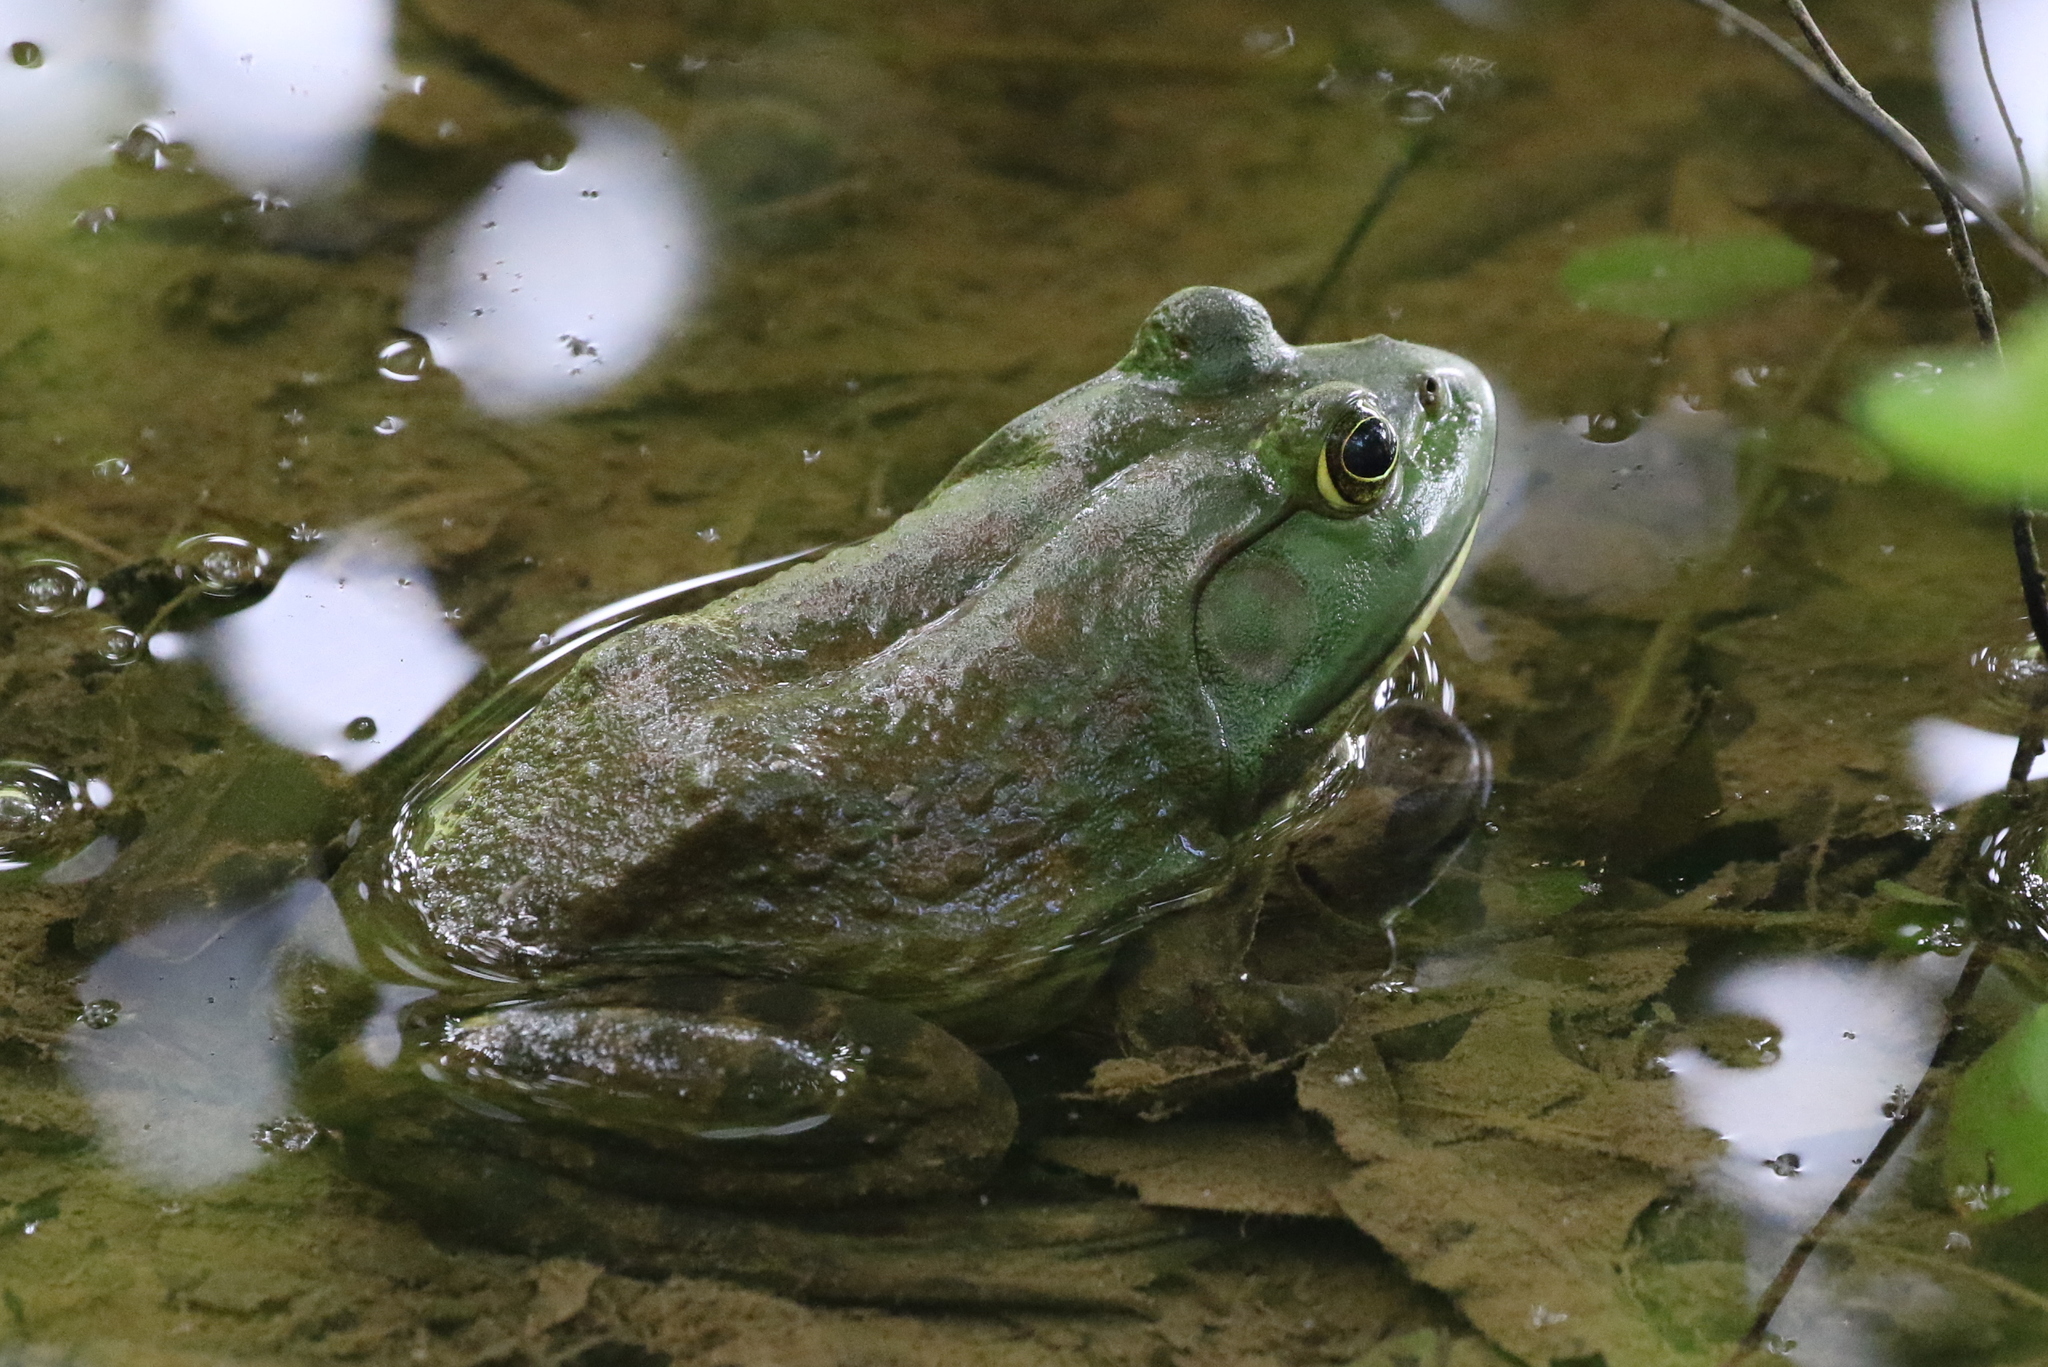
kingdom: Animalia
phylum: Chordata
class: Amphibia
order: Anura
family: Ranidae
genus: Lithobates
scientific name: Lithobates catesbeianus
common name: American bullfrog
